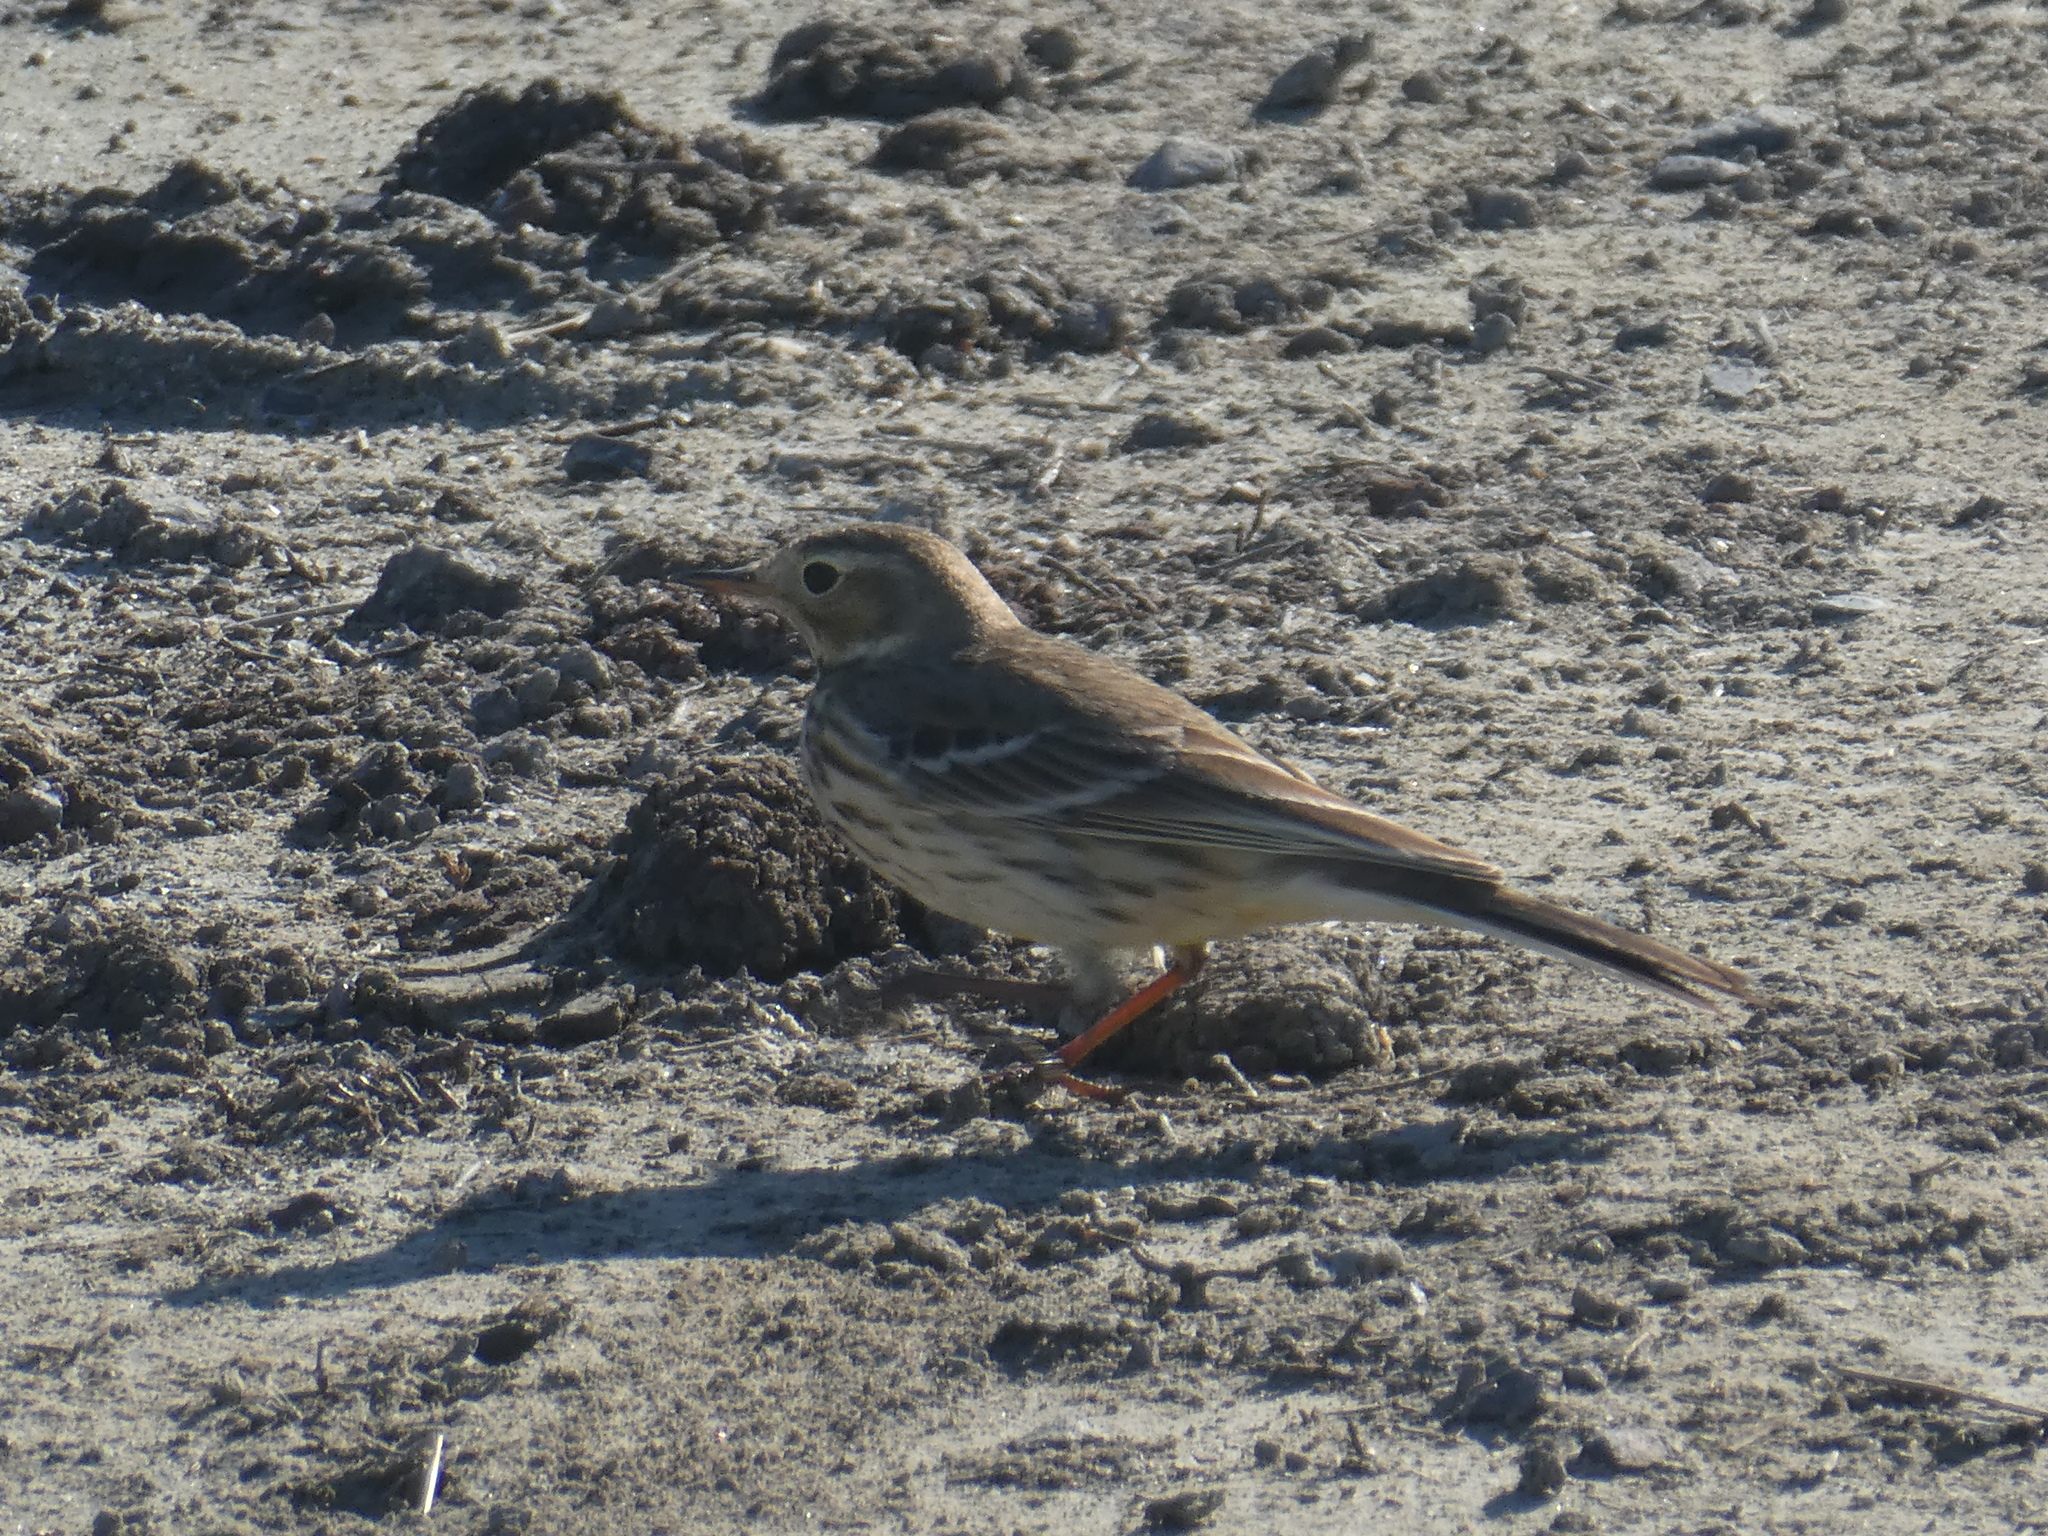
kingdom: Animalia
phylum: Chordata
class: Aves
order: Passeriformes
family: Motacillidae
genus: Anthus
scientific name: Anthus rubescens
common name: Buff-bellied pipit
